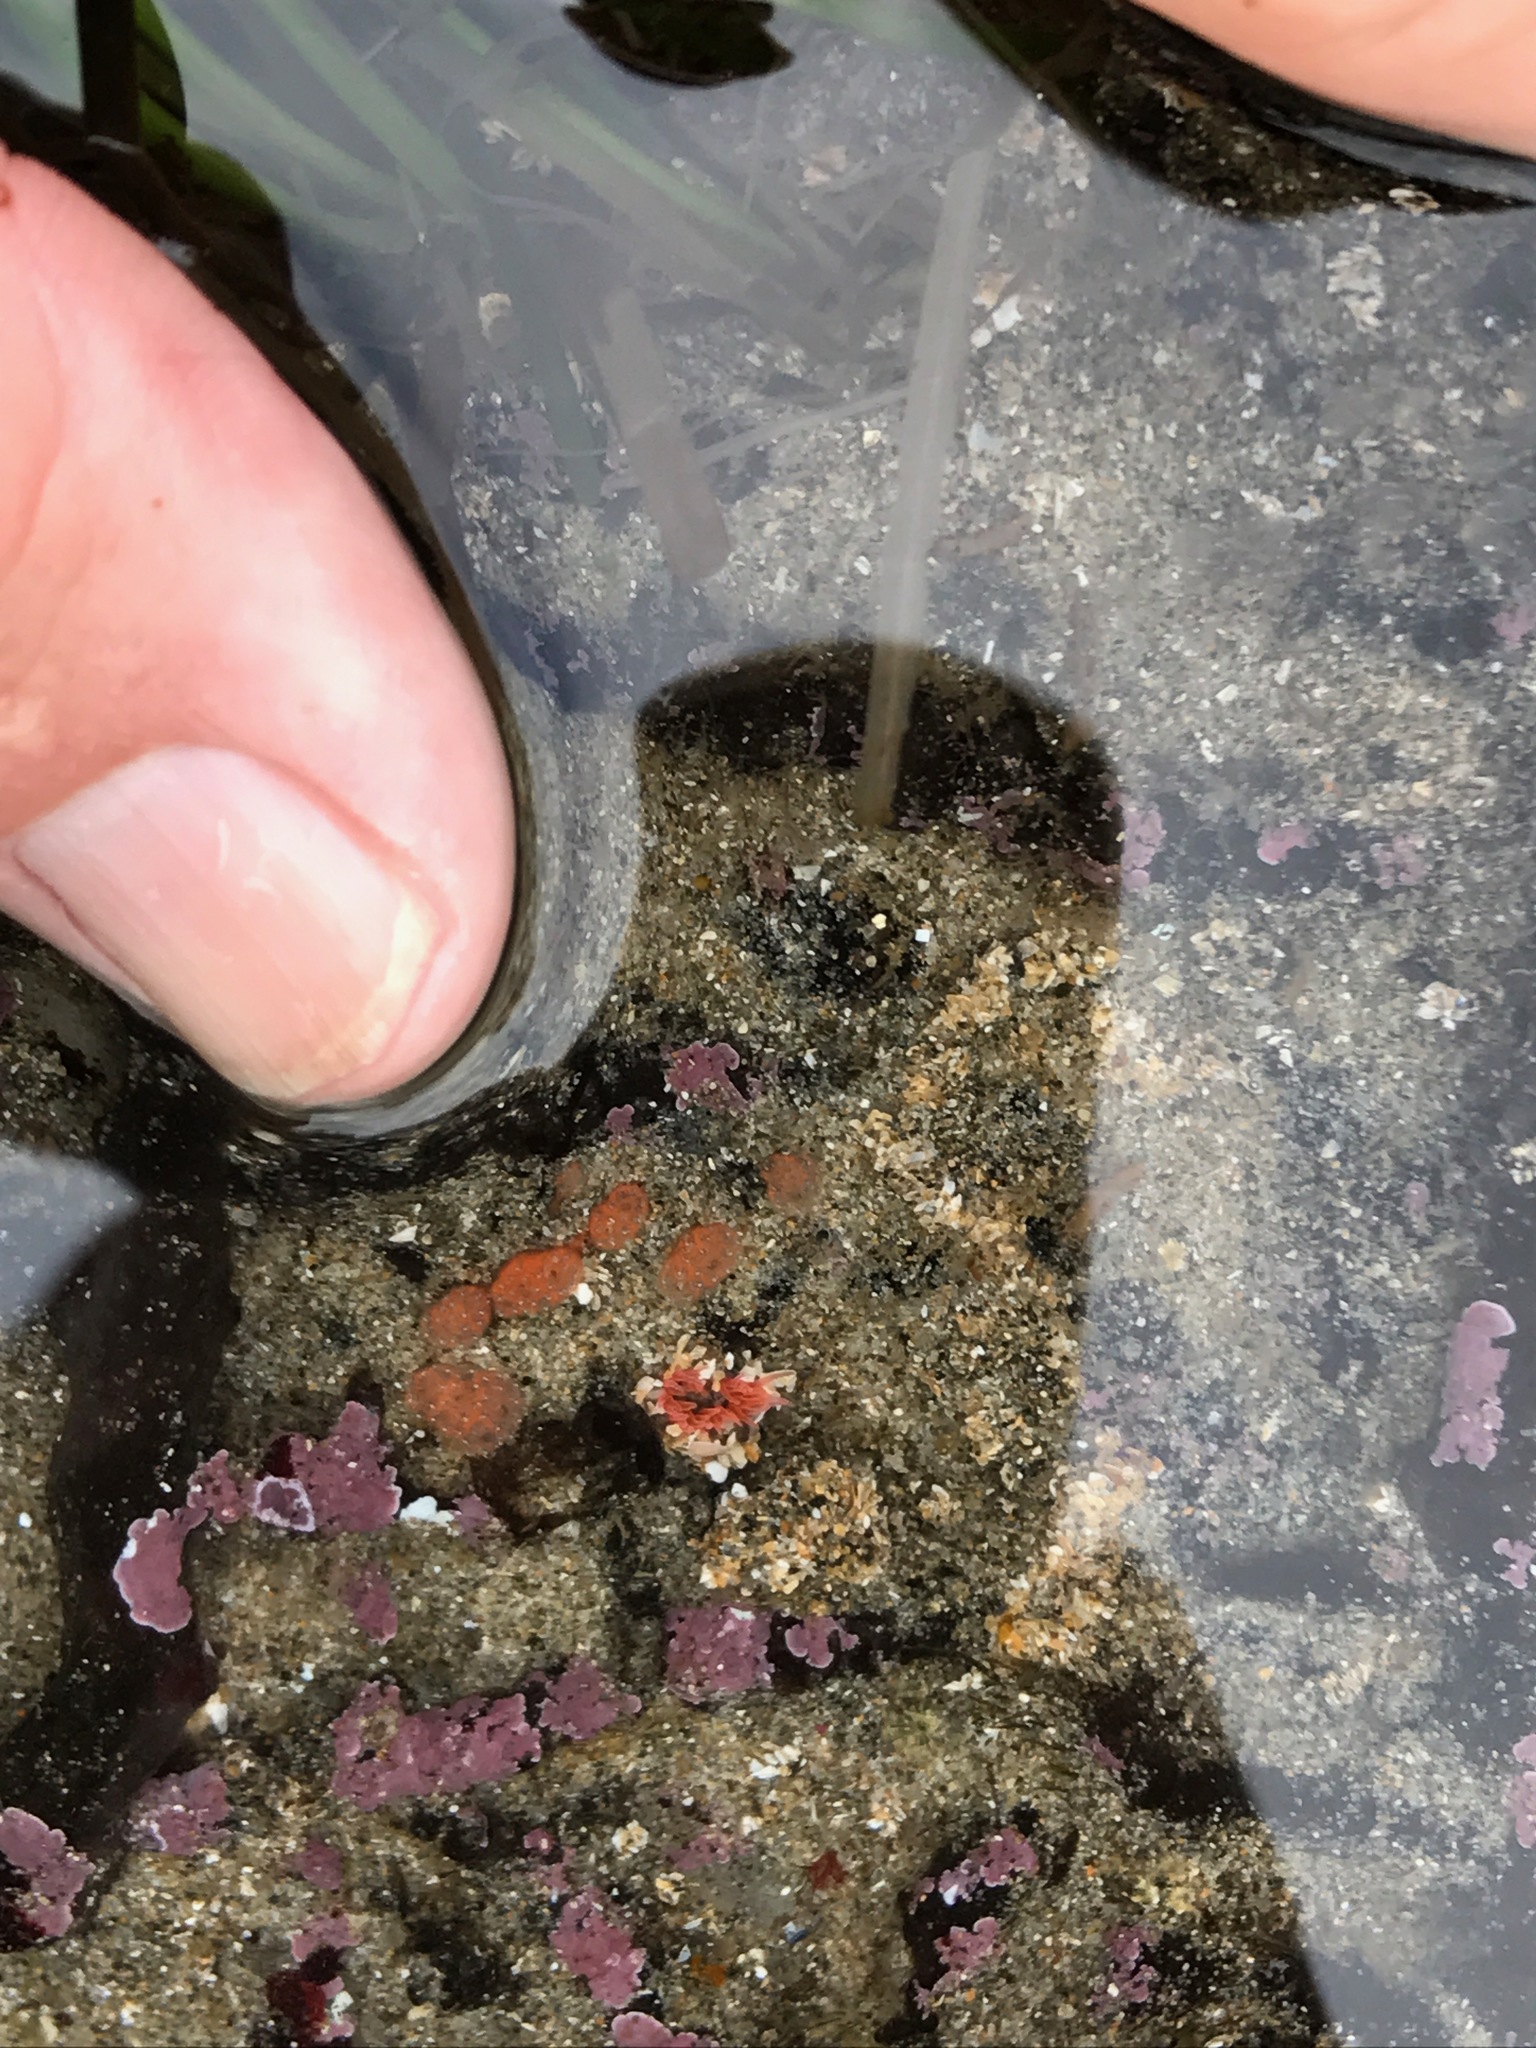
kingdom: Animalia
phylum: Cnidaria
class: Anthozoa
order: Actiniaria
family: Actiniidae
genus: Anthopleura
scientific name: Anthopleura artemisia
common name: Buried sea anemone
